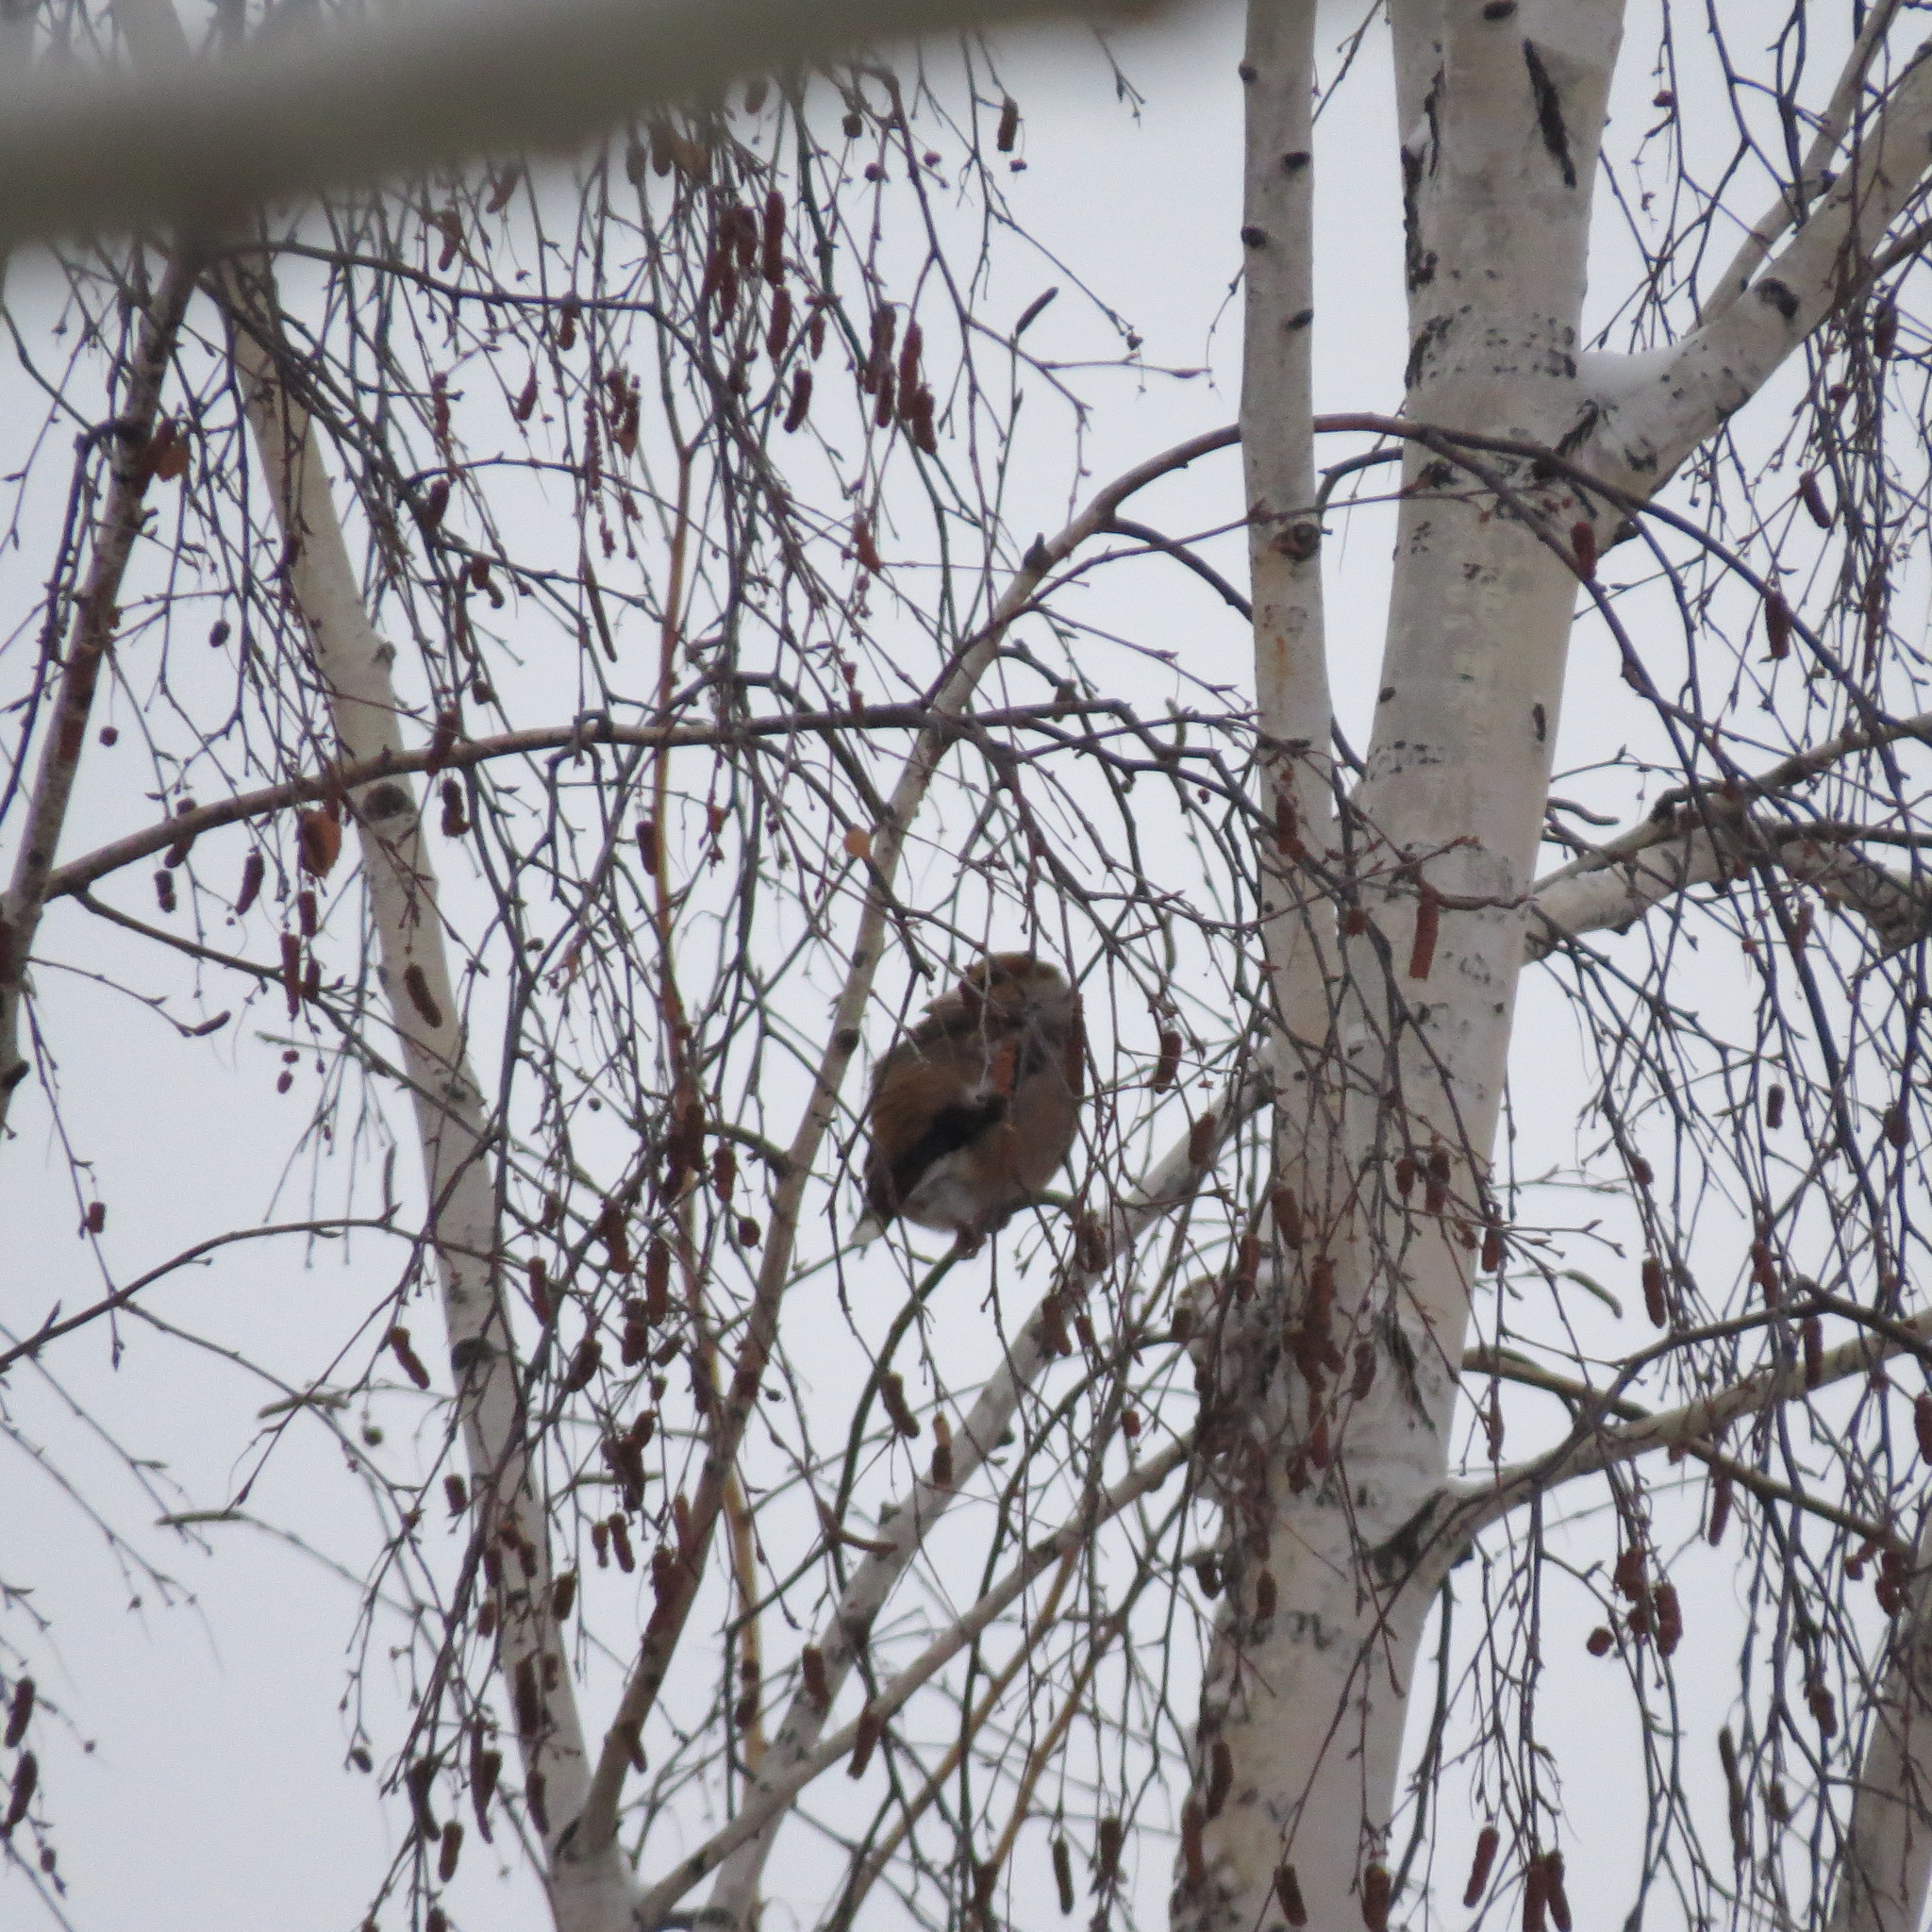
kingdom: Animalia
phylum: Chordata
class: Aves
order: Passeriformes
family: Fringillidae
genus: Coccothraustes
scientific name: Coccothraustes coccothraustes
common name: Hawfinch
